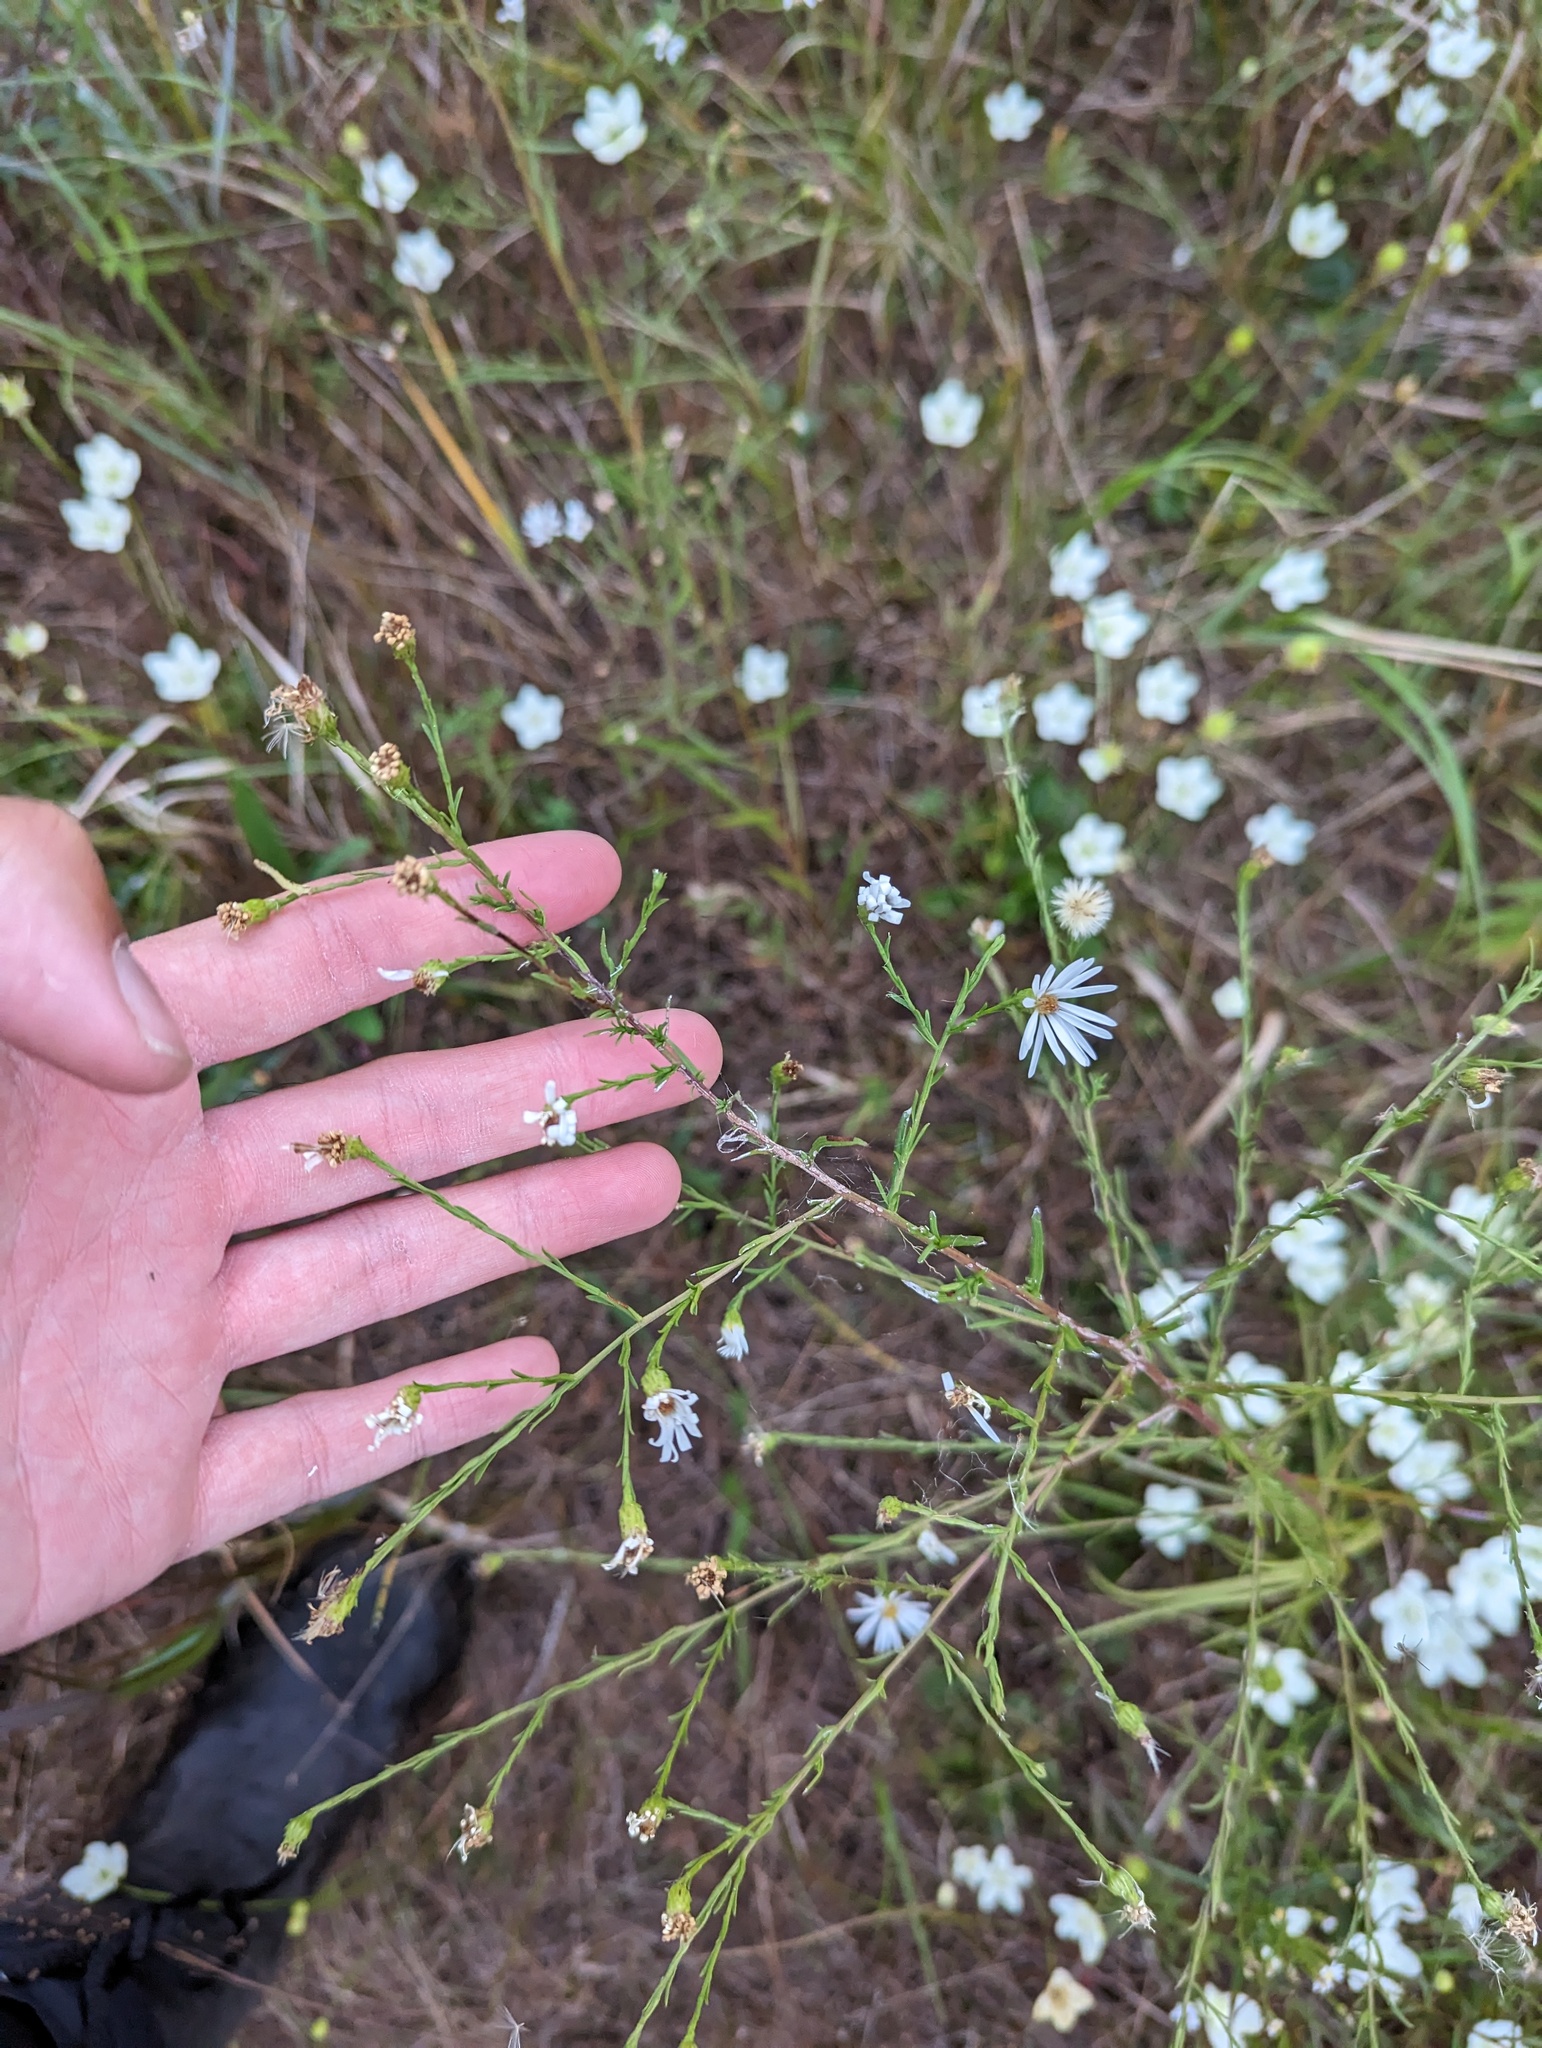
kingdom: Plantae
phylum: Tracheophyta
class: Magnoliopsida
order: Asterales
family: Asteraceae
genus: Symphyotrichum
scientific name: Symphyotrichum dumosum
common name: Bushy aster
